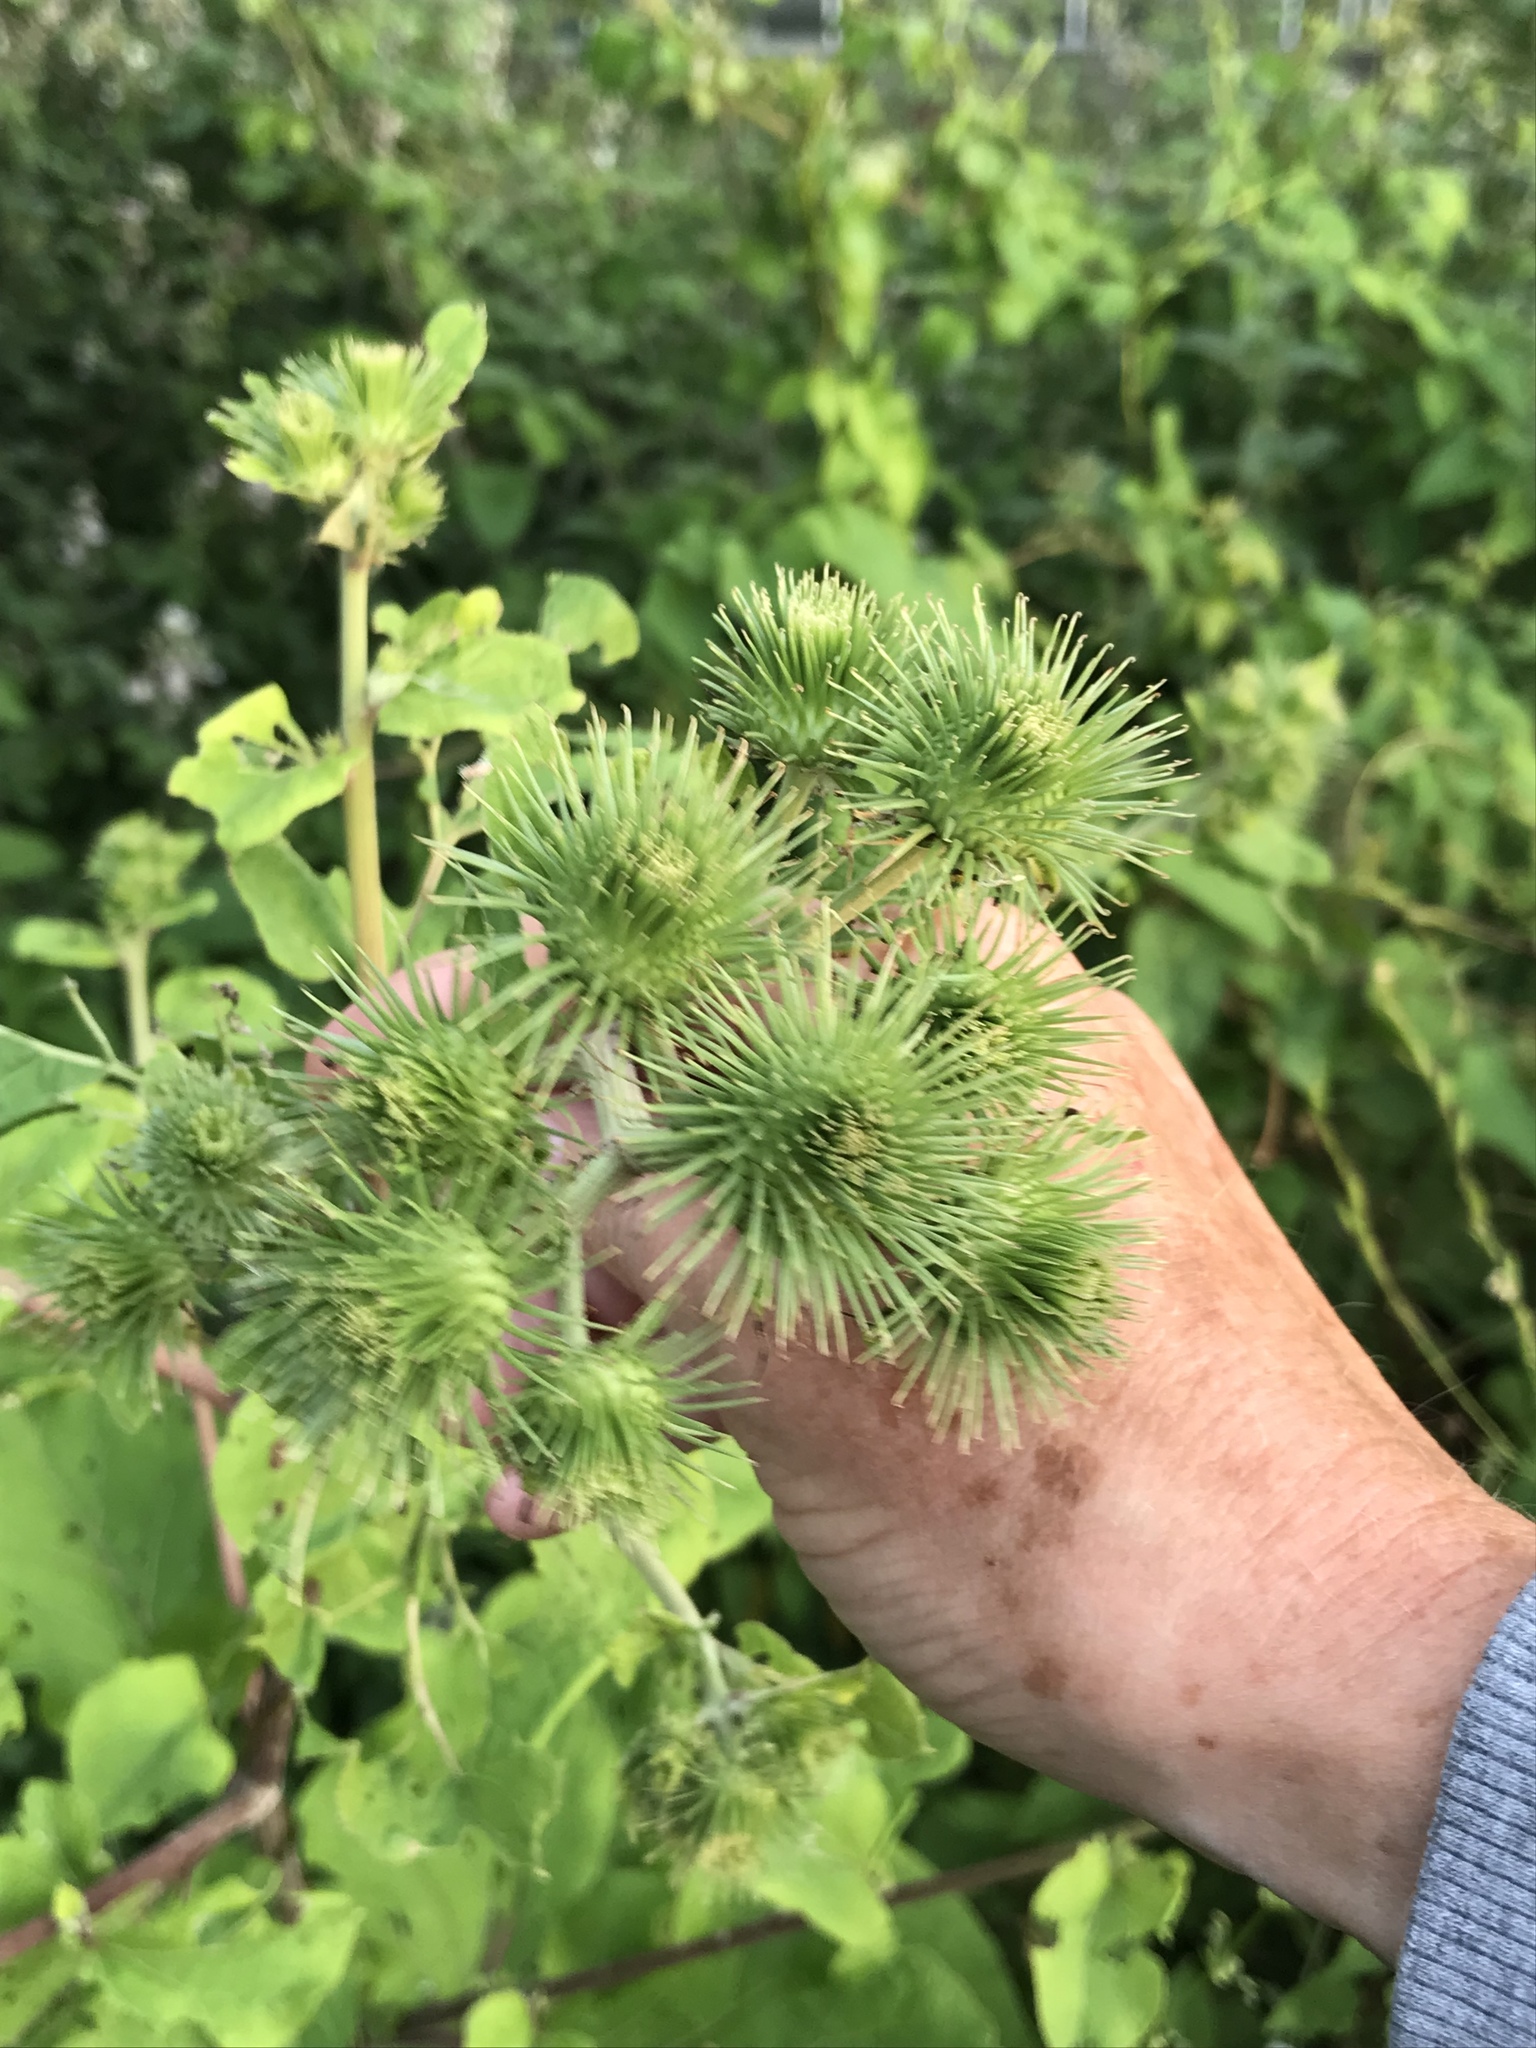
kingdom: Plantae
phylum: Tracheophyta
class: Magnoliopsida
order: Asterales
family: Asteraceae
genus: Arctium
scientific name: Arctium lappa
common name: Greater burdock
